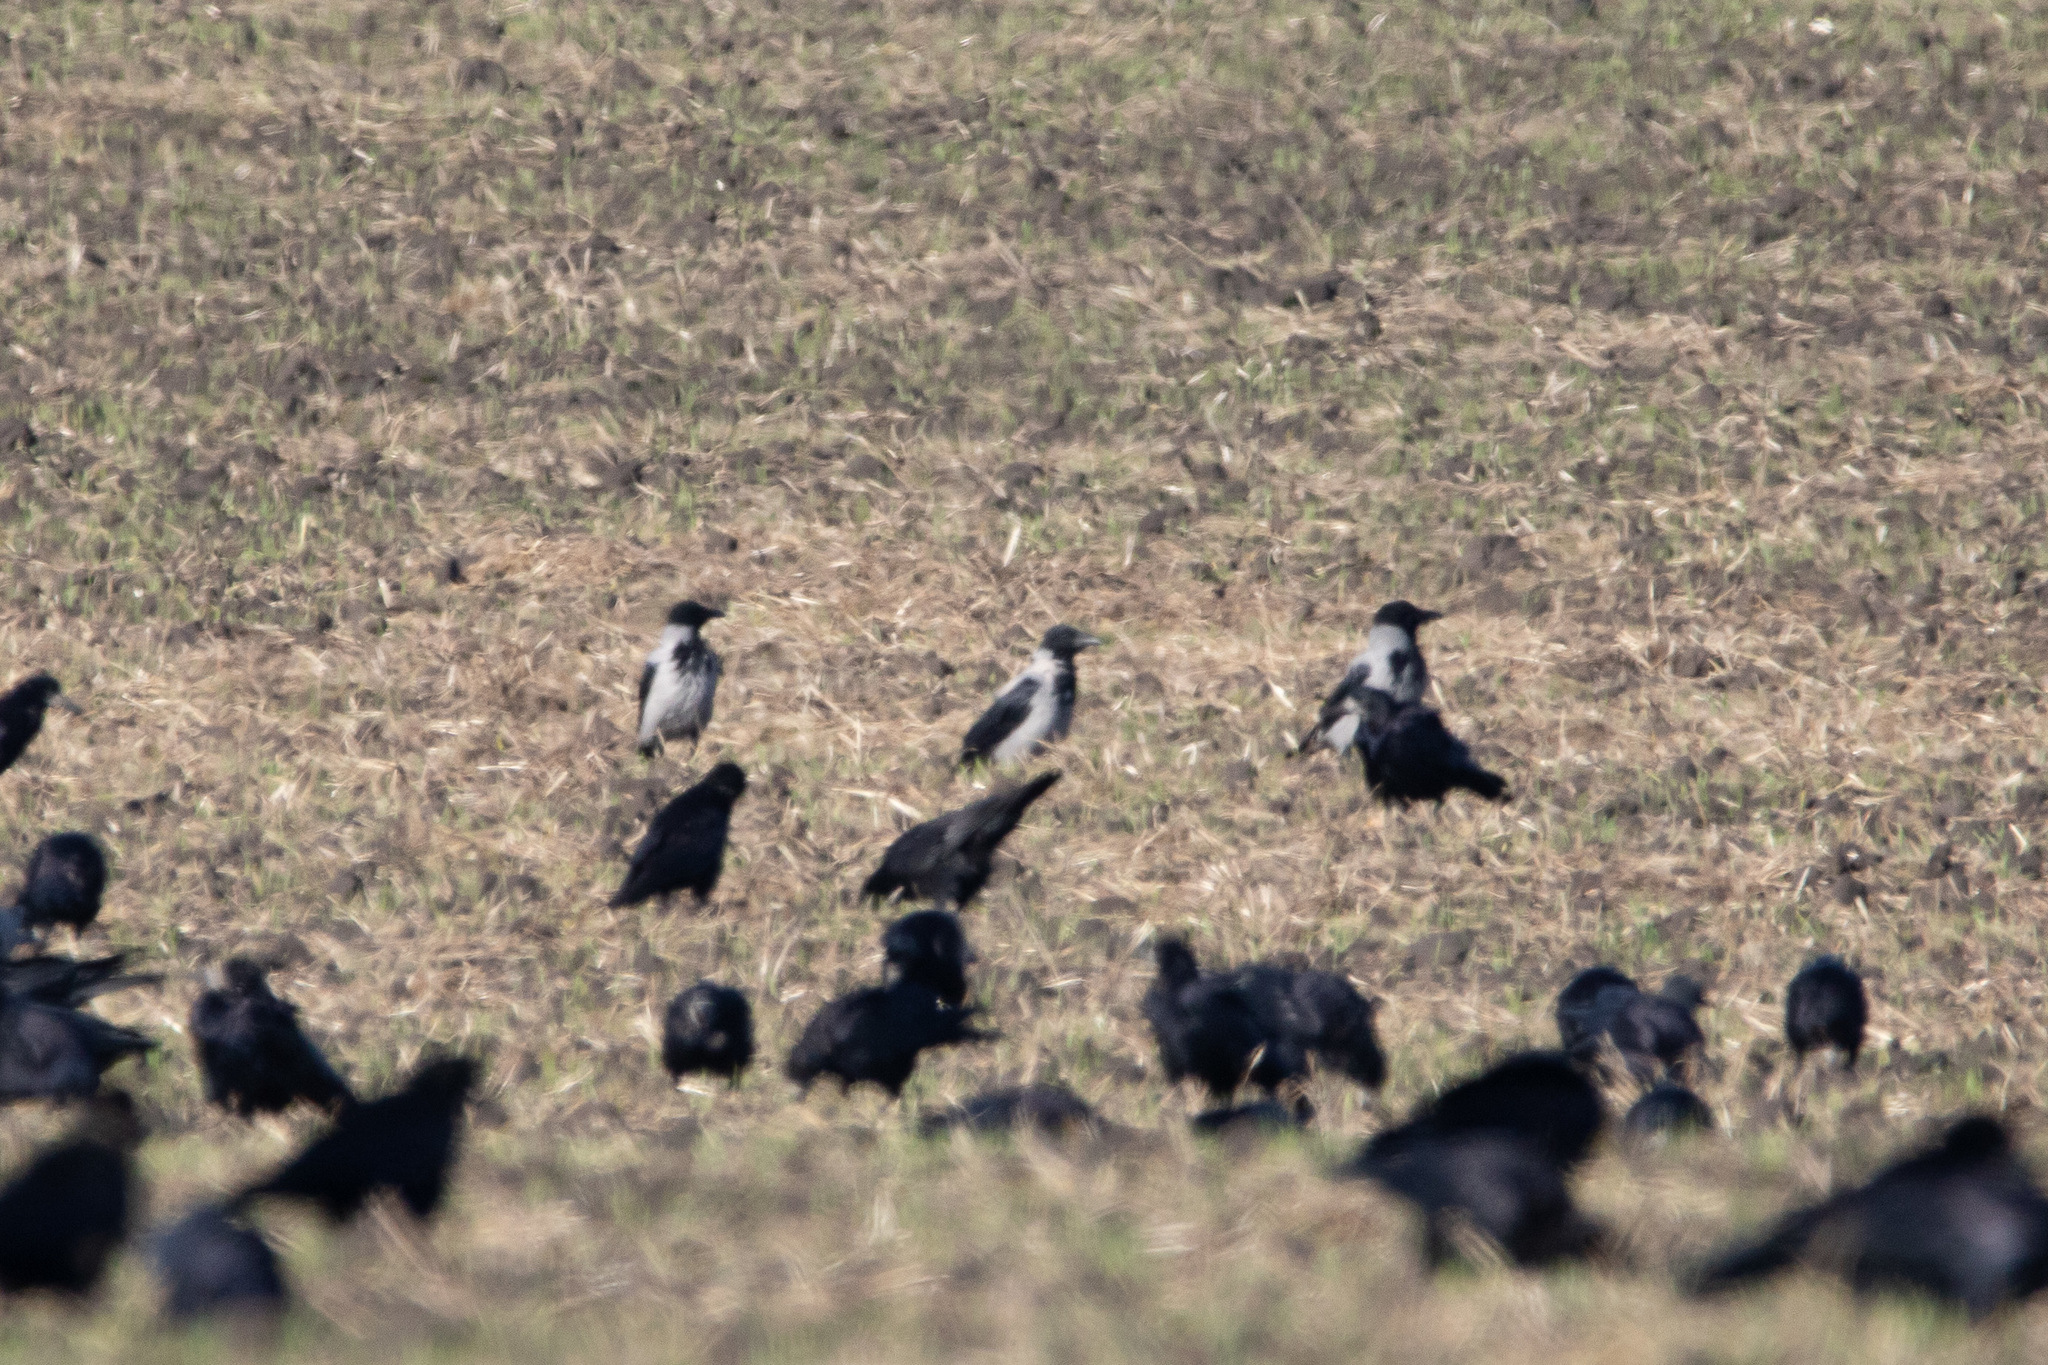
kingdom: Animalia
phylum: Chordata
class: Aves
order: Passeriformes
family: Corvidae
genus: Corvus
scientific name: Corvus cornix
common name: Hooded crow
